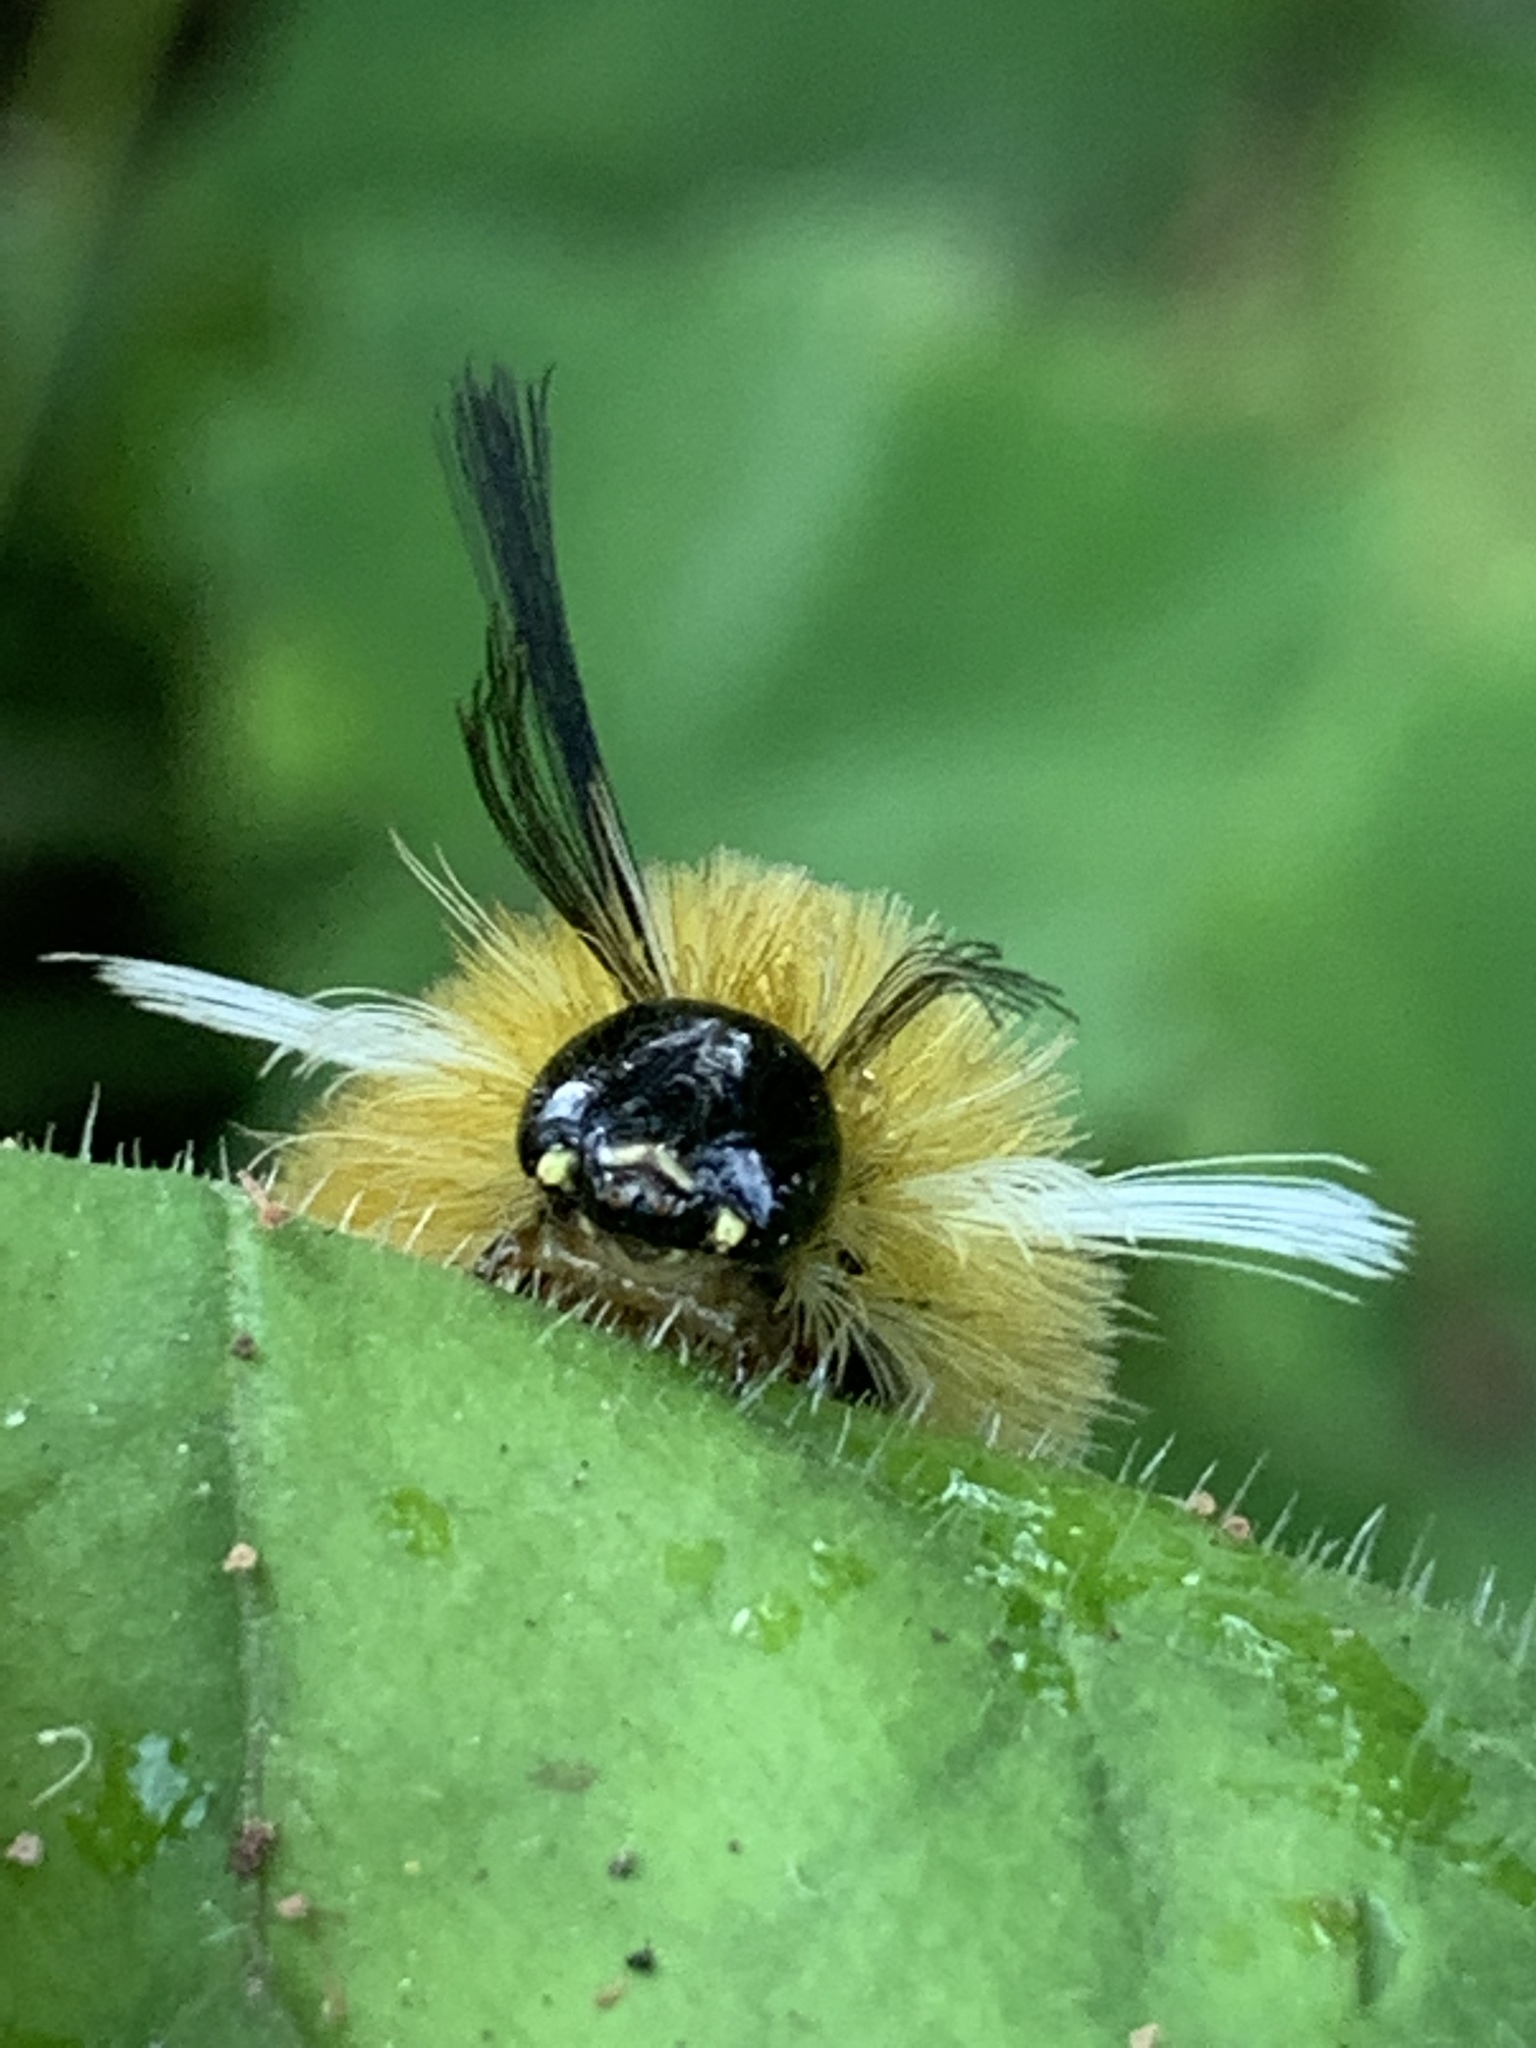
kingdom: Animalia
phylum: Arthropoda
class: Insecta
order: Lepidoptera
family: Erebidae
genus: Halysidota
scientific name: Halysidota tessellaris
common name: Banded tussock moth
